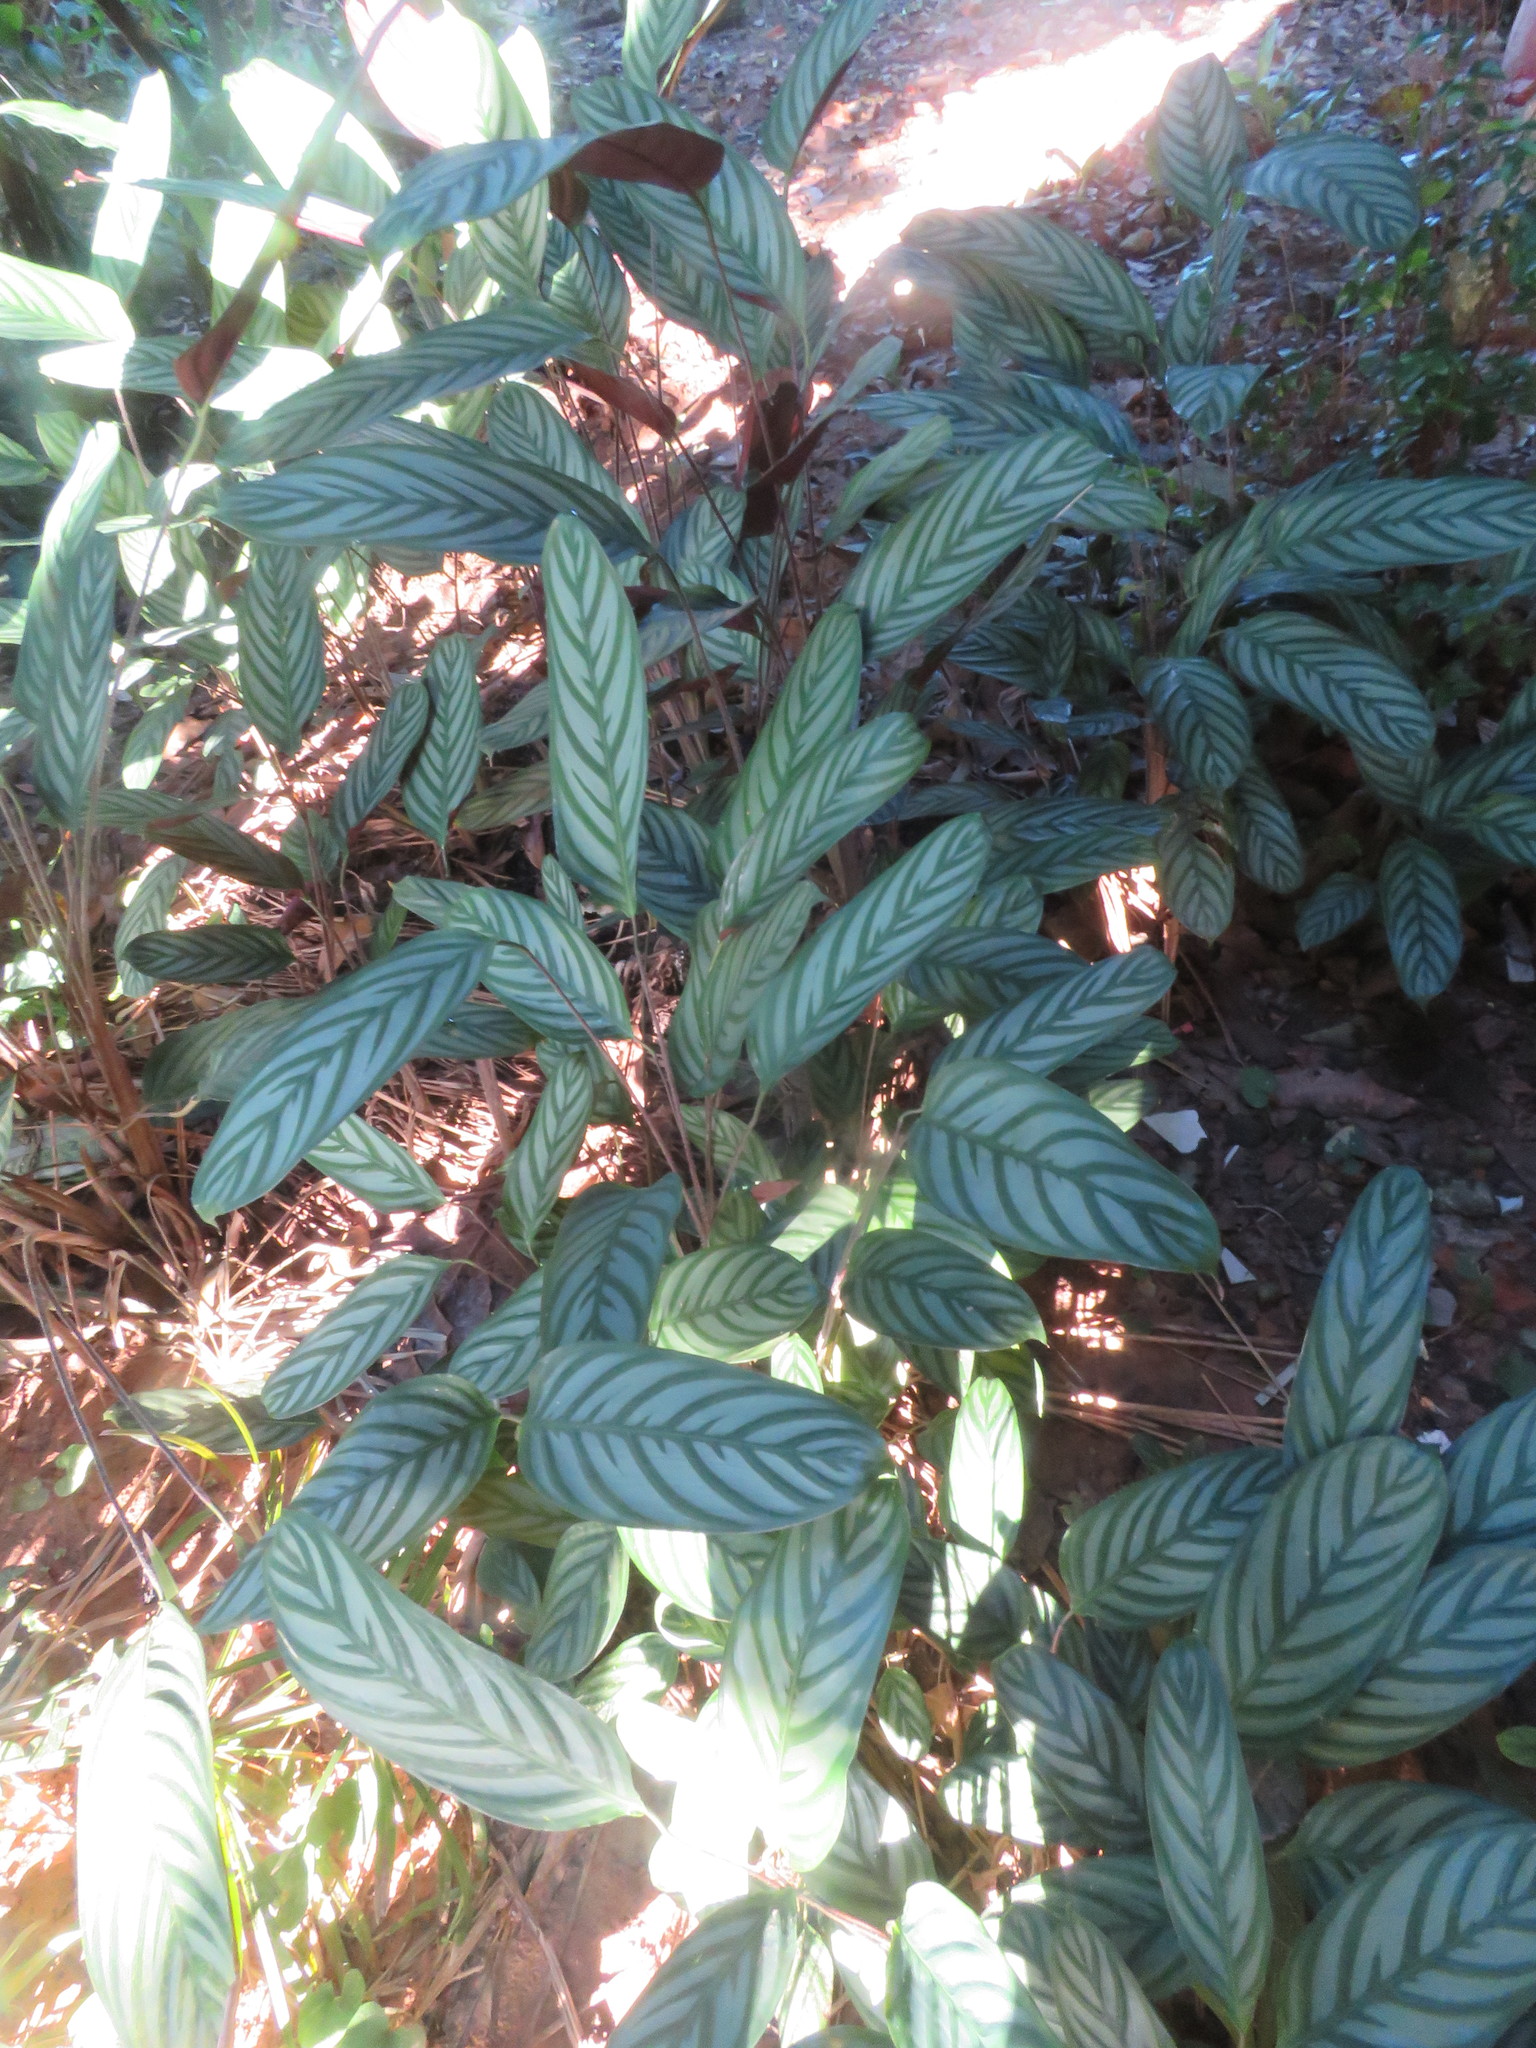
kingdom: Plantae
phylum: Tracheophyta
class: Liliopsida
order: Zingiberales
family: Marantaceae
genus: Ctenanthe
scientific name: Ctenanthe setosa
